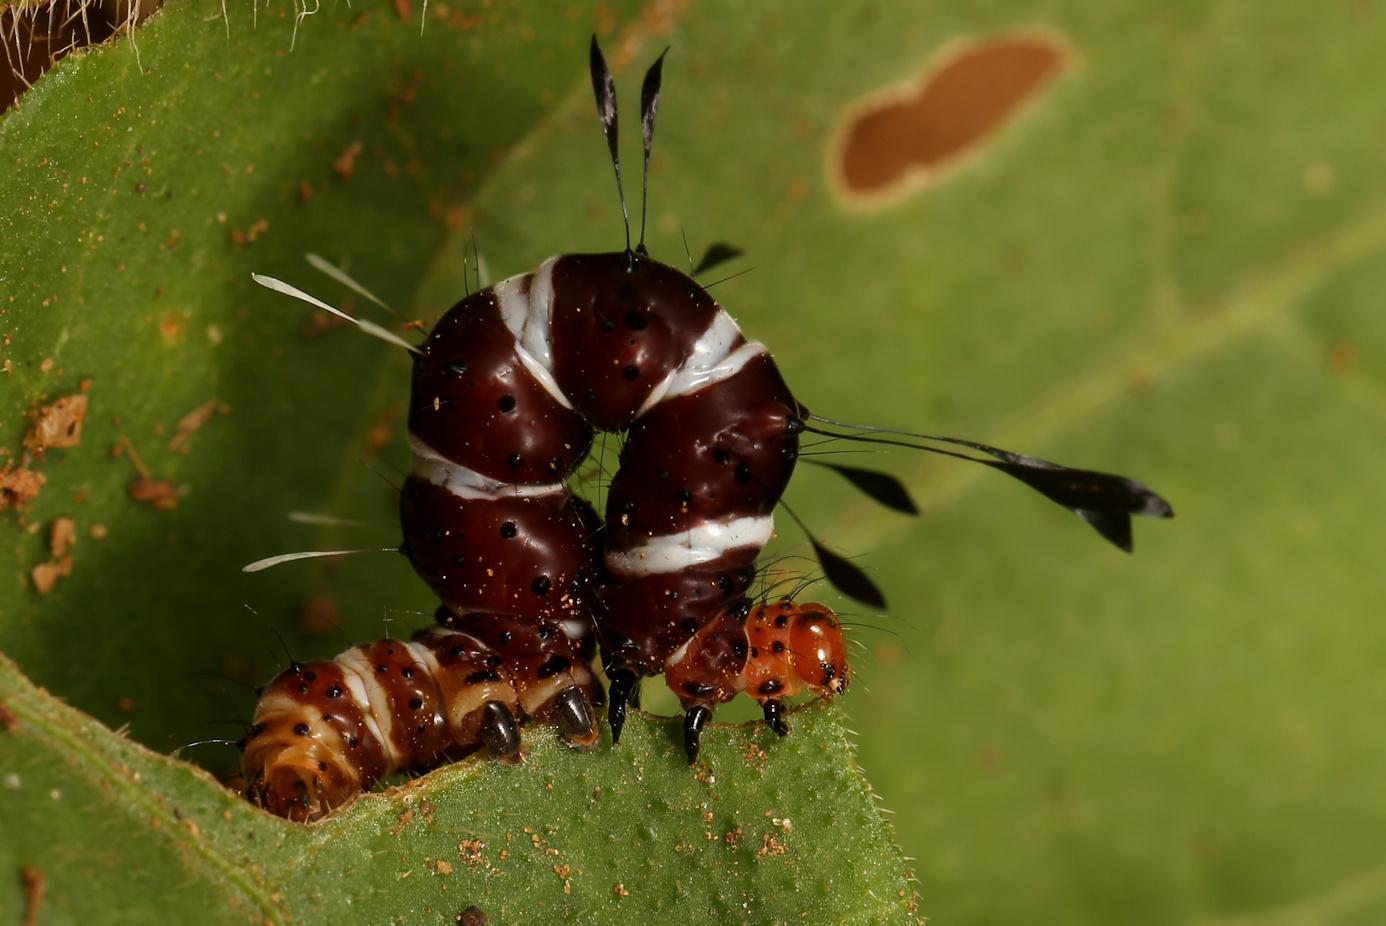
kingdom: Animalia
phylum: Arthropoda
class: Insecta
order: Lepidoptera
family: Erebidae
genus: Rhanidophora
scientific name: Rhanidophora ridens
